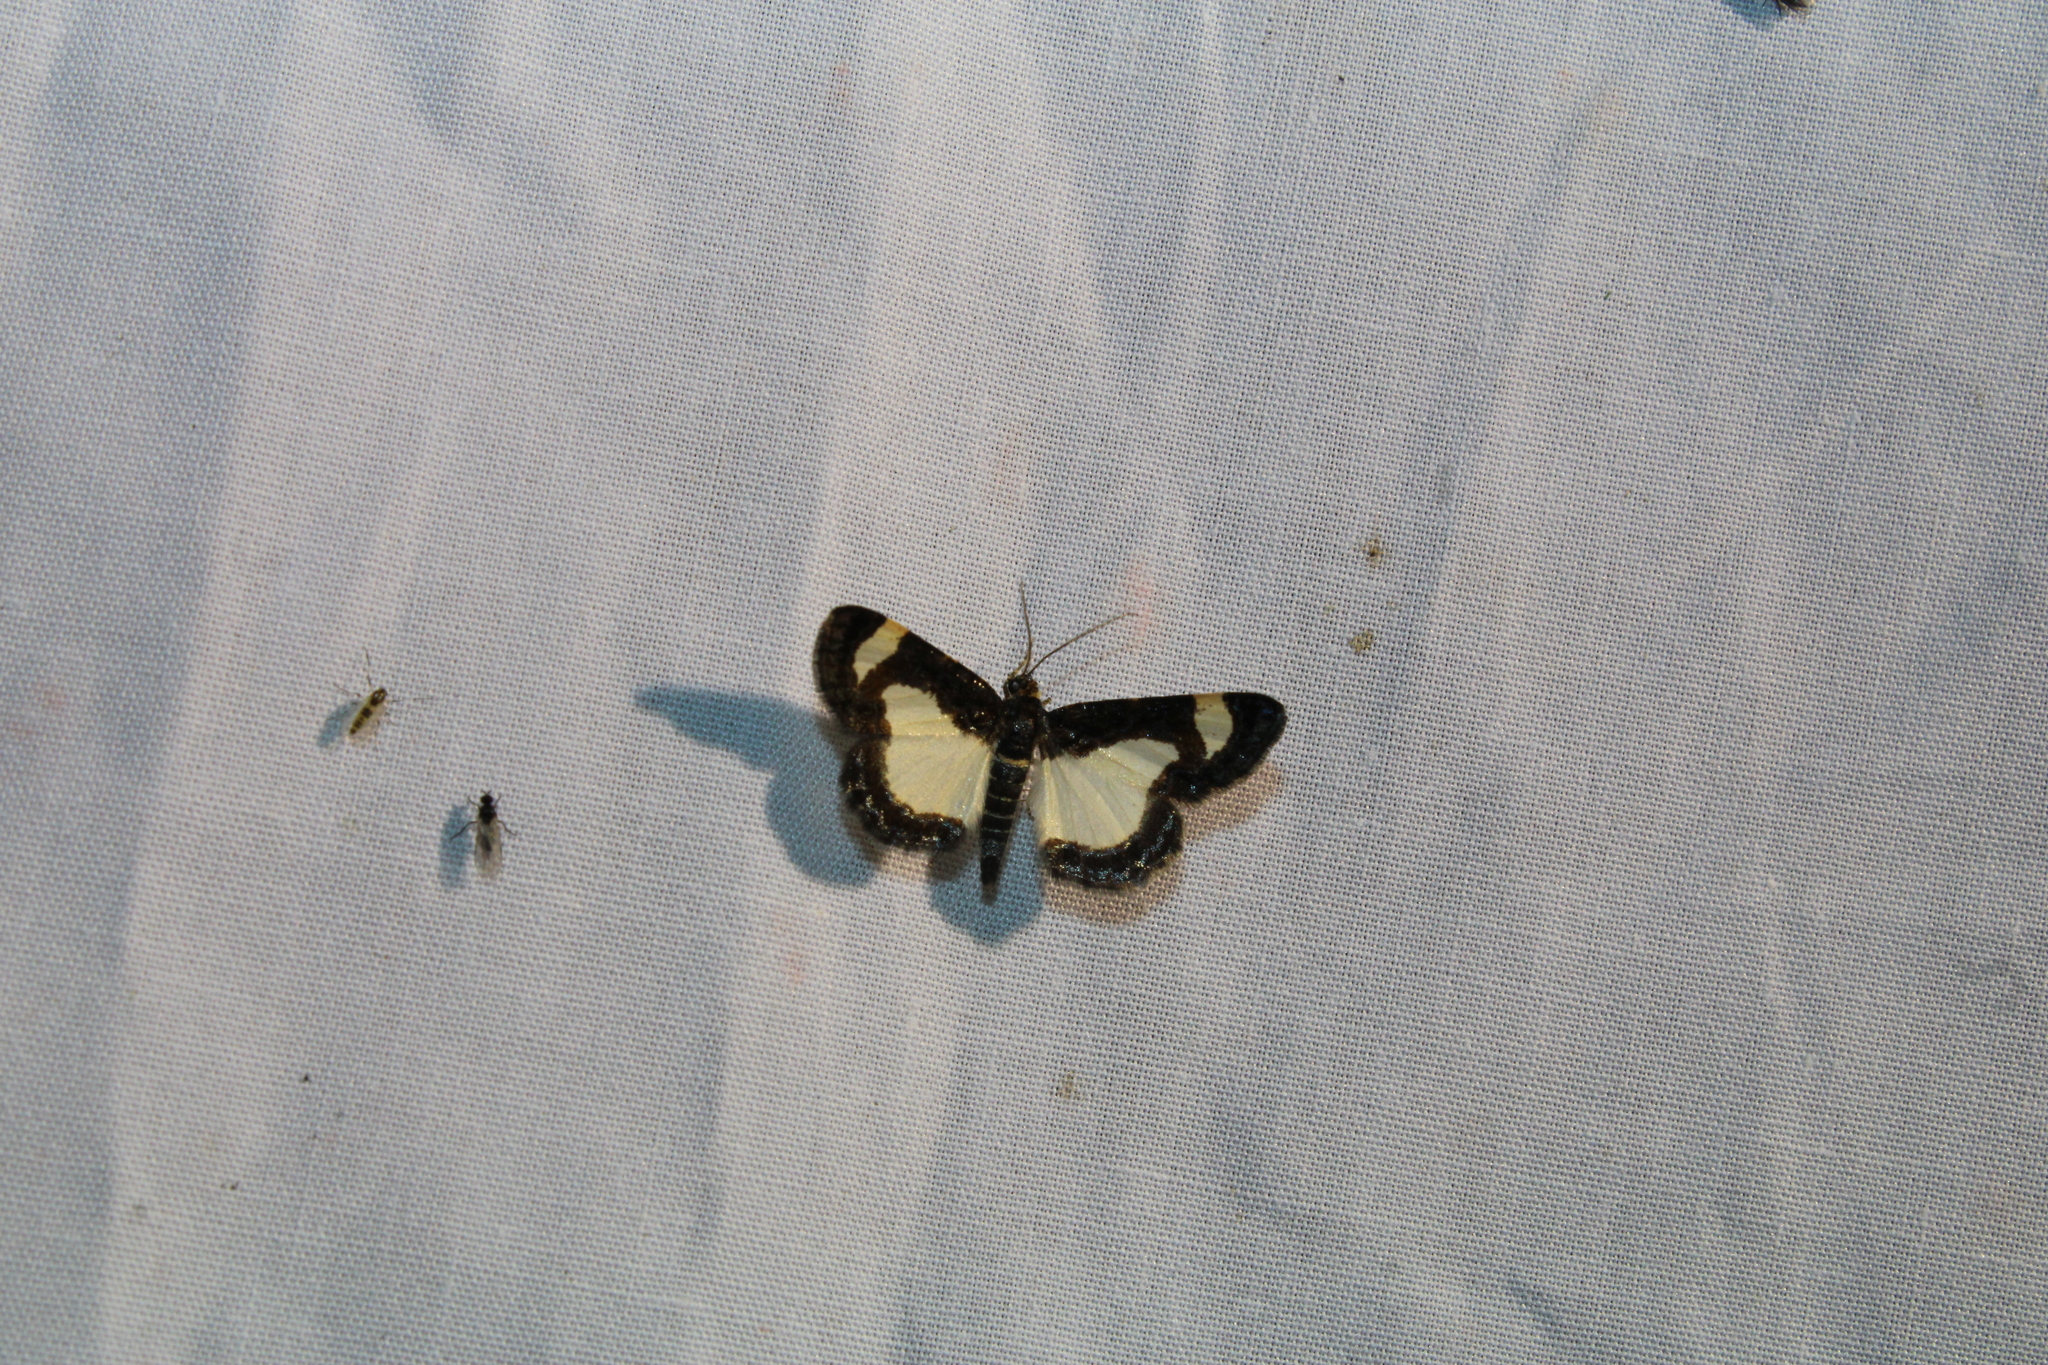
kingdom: Animalia
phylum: Arthropoda
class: Insecta
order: Lepidoptera
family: Geometridae
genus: Heliomata
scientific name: Heliomata cycladata
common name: Common spring moth
